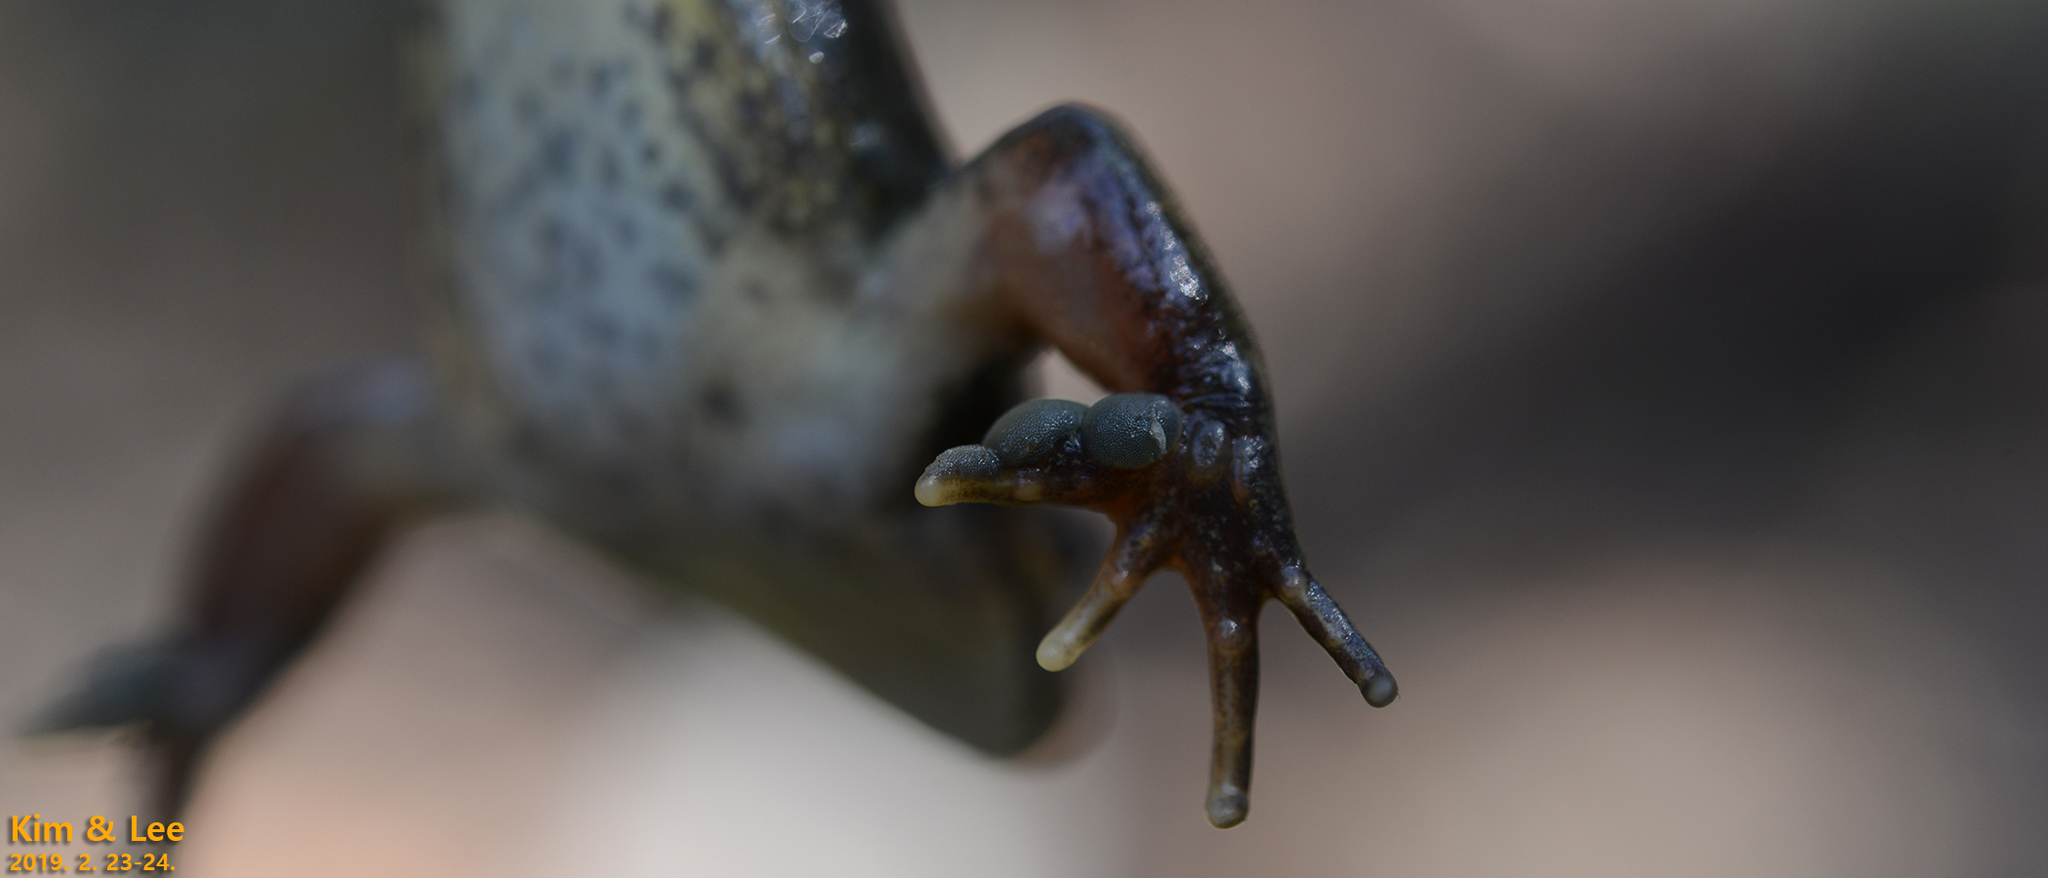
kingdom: Animalia
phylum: Chordata
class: Amphibia
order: Anura
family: Ranidae
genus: Rana
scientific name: Rana uenoi
